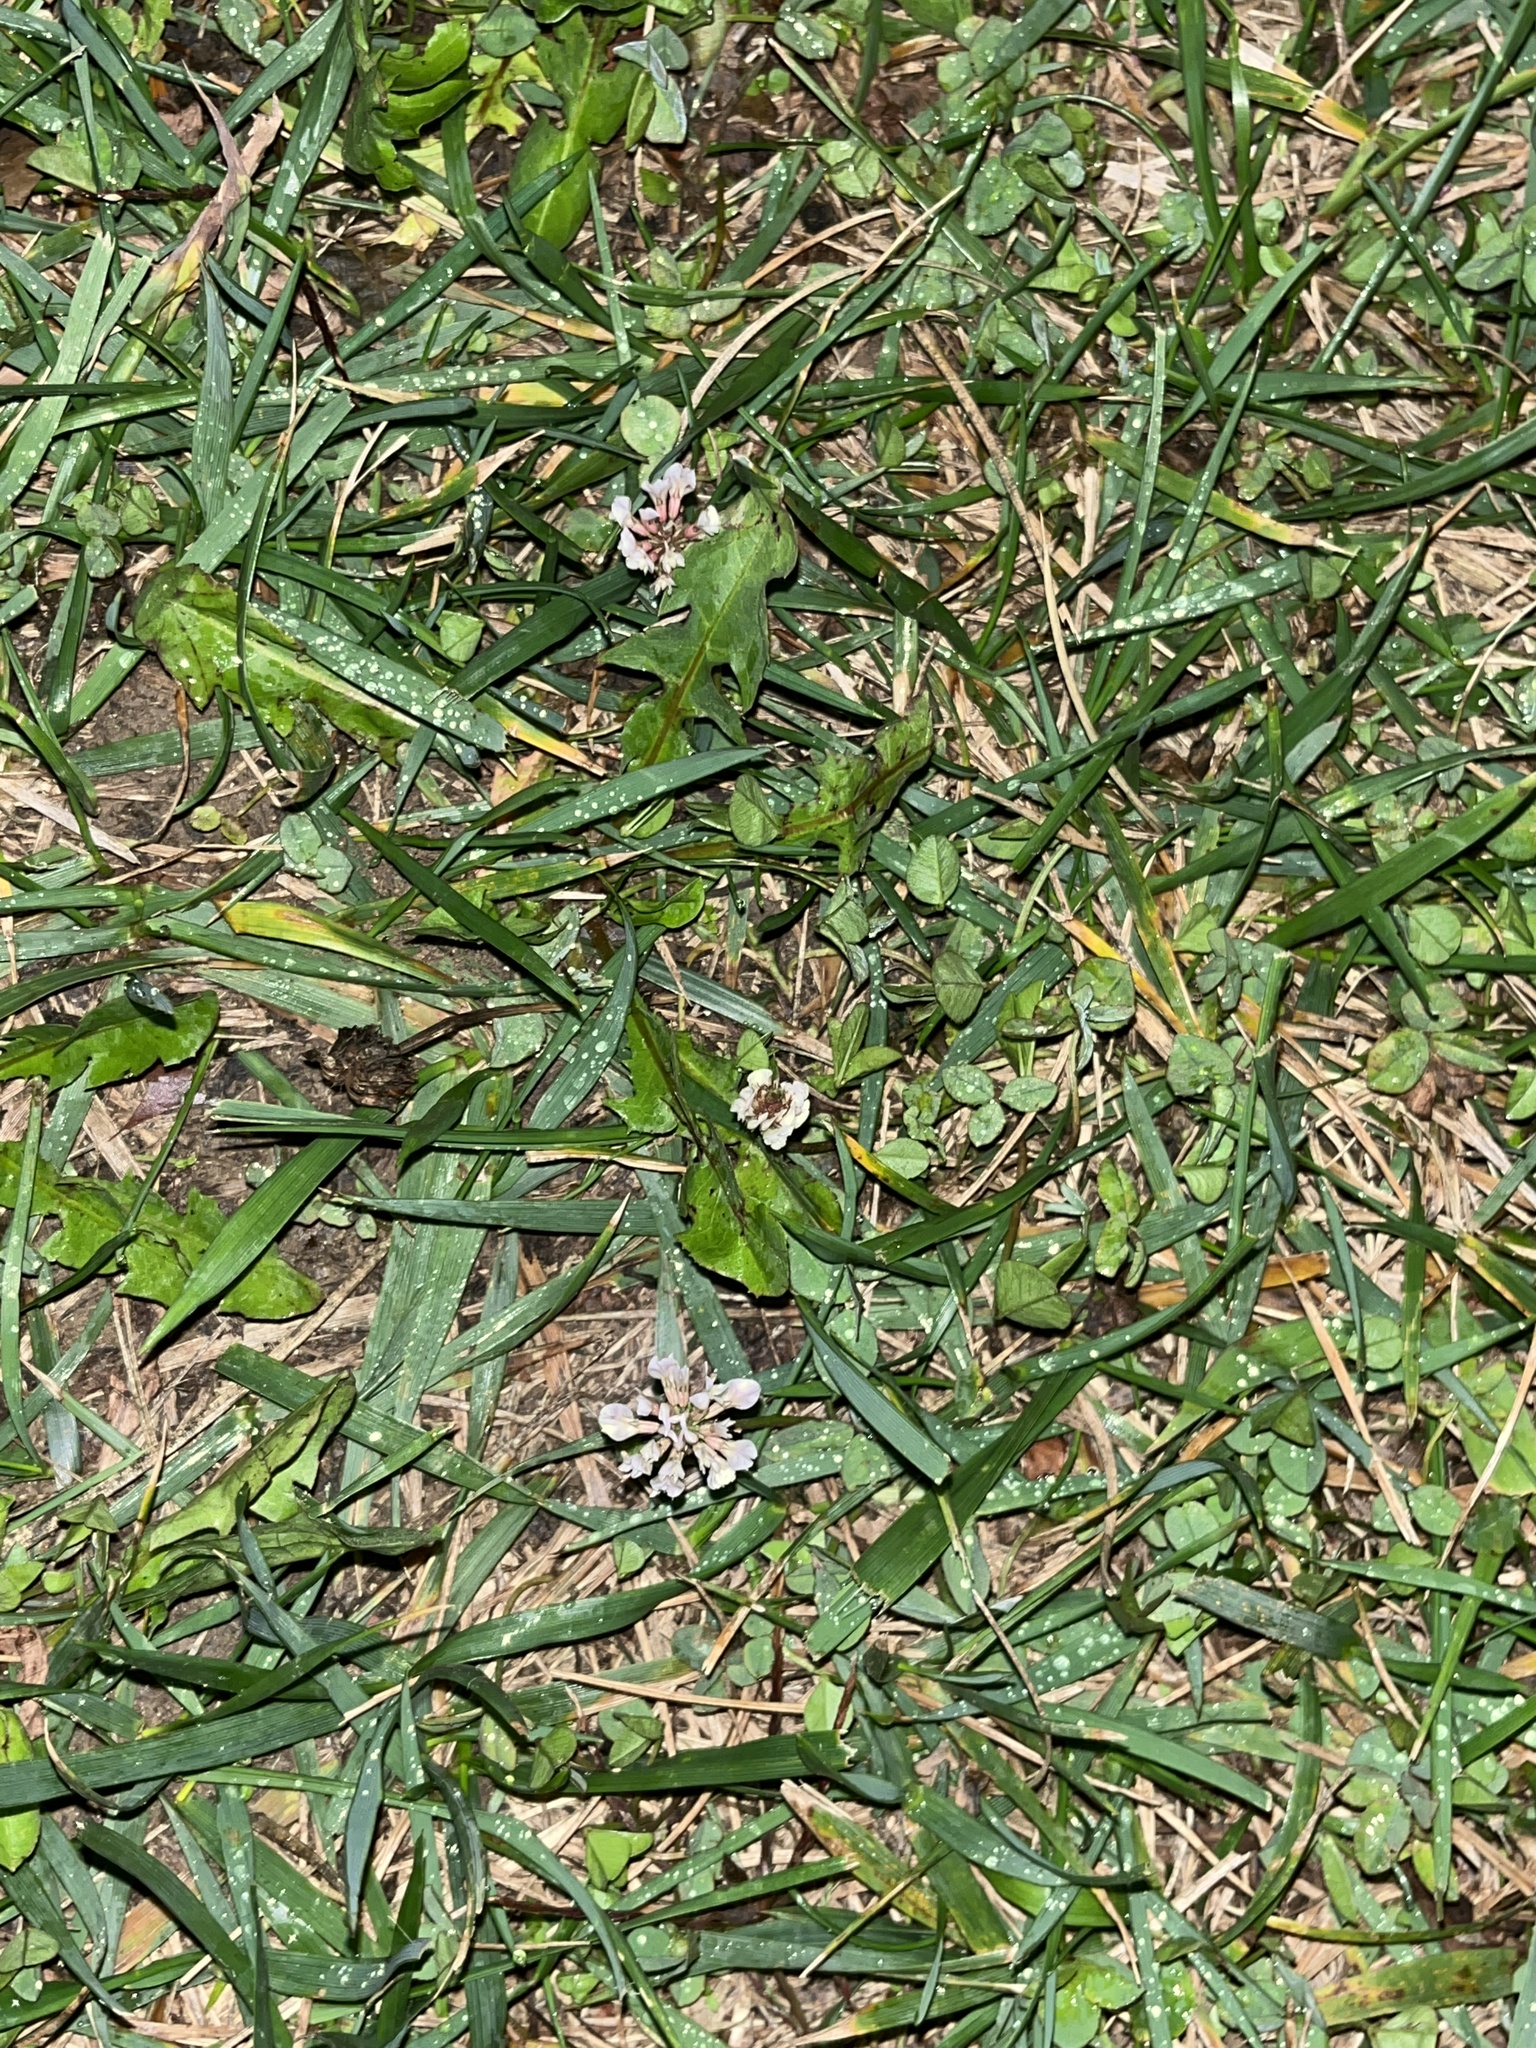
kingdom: Plantae
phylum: Tracheophyta
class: Magnoliopsida
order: Fabales
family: Fabaceae
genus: Trifolium
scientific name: Trifolium repens
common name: White clover
